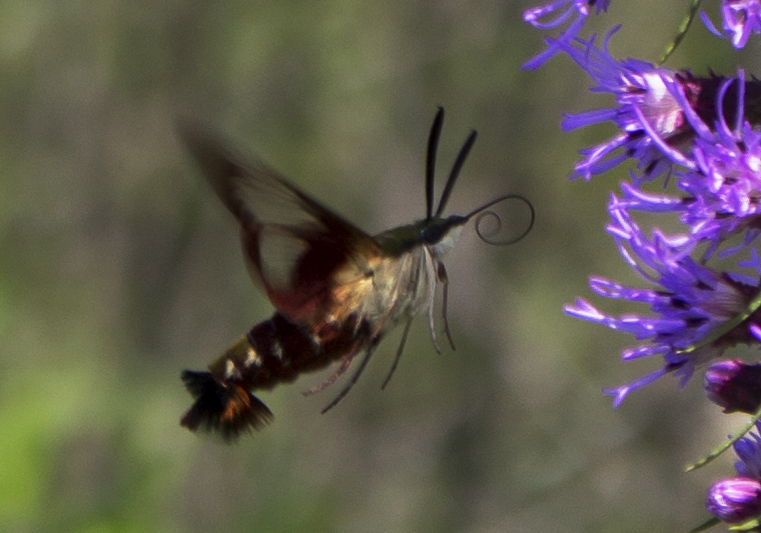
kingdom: Animalia
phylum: Arthropoda
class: Insecta
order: Lepidoptera
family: Sphingidae
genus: Hemaris
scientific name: Hemaris thysbe
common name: Common clear-wing
